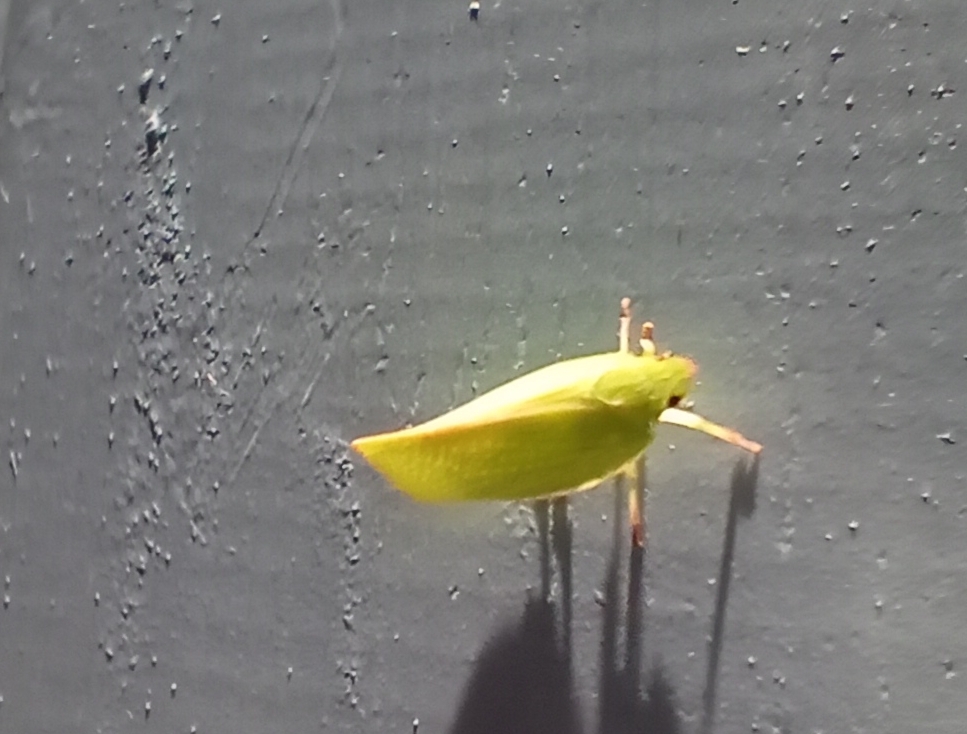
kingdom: Animalia
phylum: Arthropoda
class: Insecta
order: Hemiptera
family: Flatidae
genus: Siphanta
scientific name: Siphanta acuta
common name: Torpedo bug
